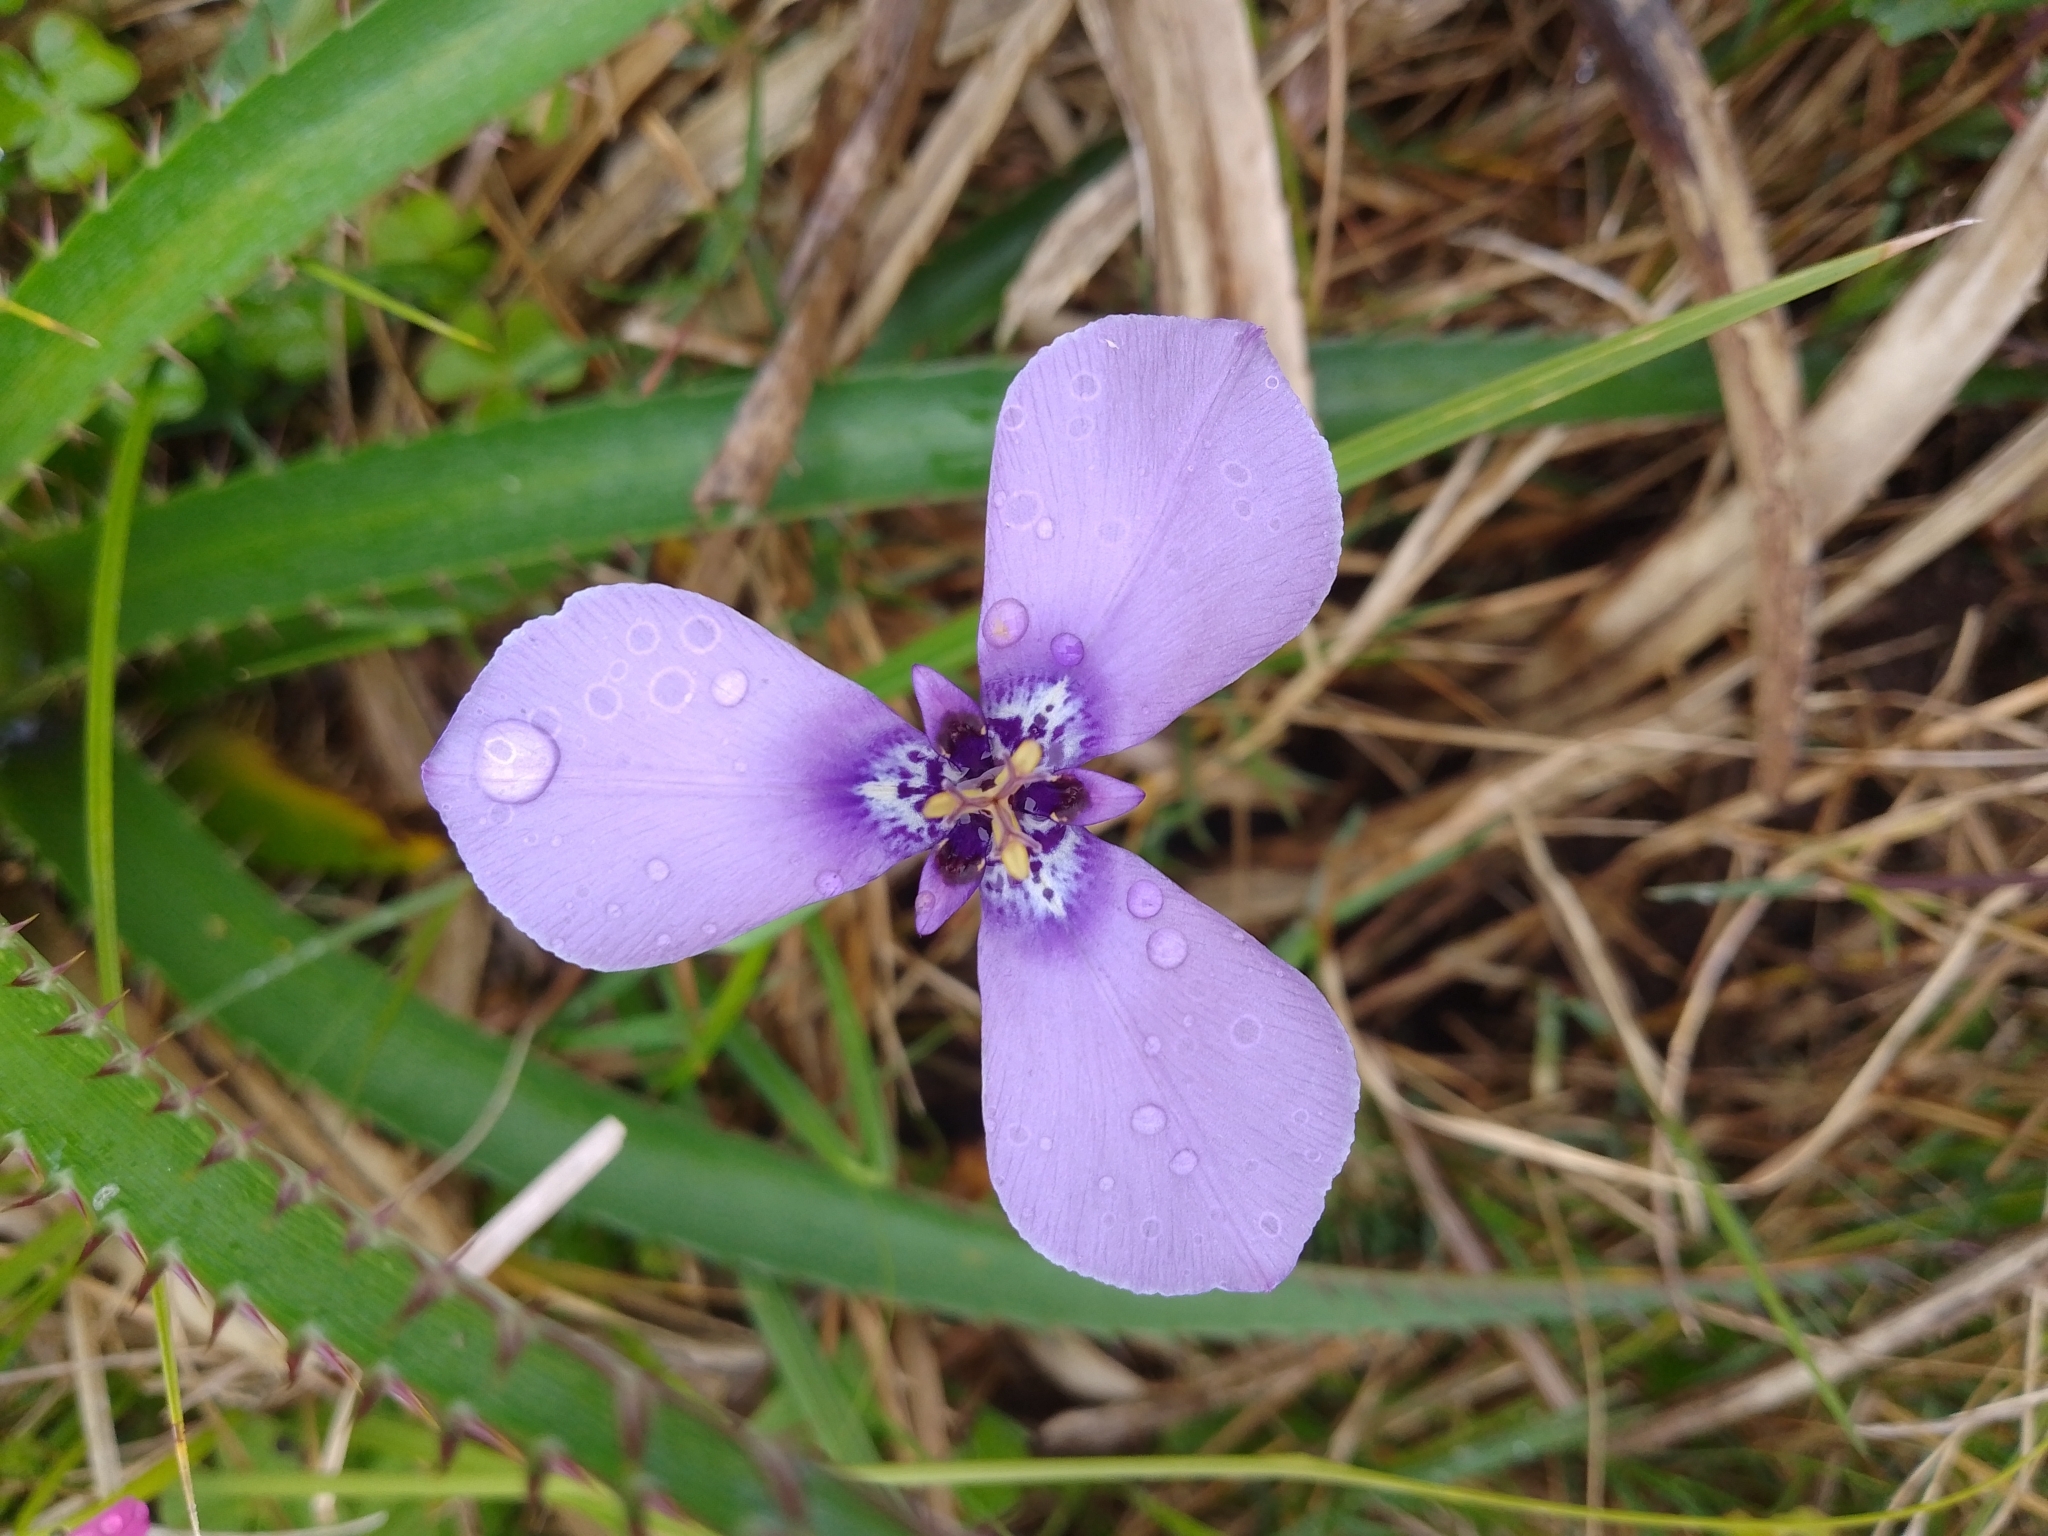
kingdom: Plantae
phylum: Tracheophyta
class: Liliopsida
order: Asparagales
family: Iridaceae
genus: Herbertia
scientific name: Herbertia lahue
